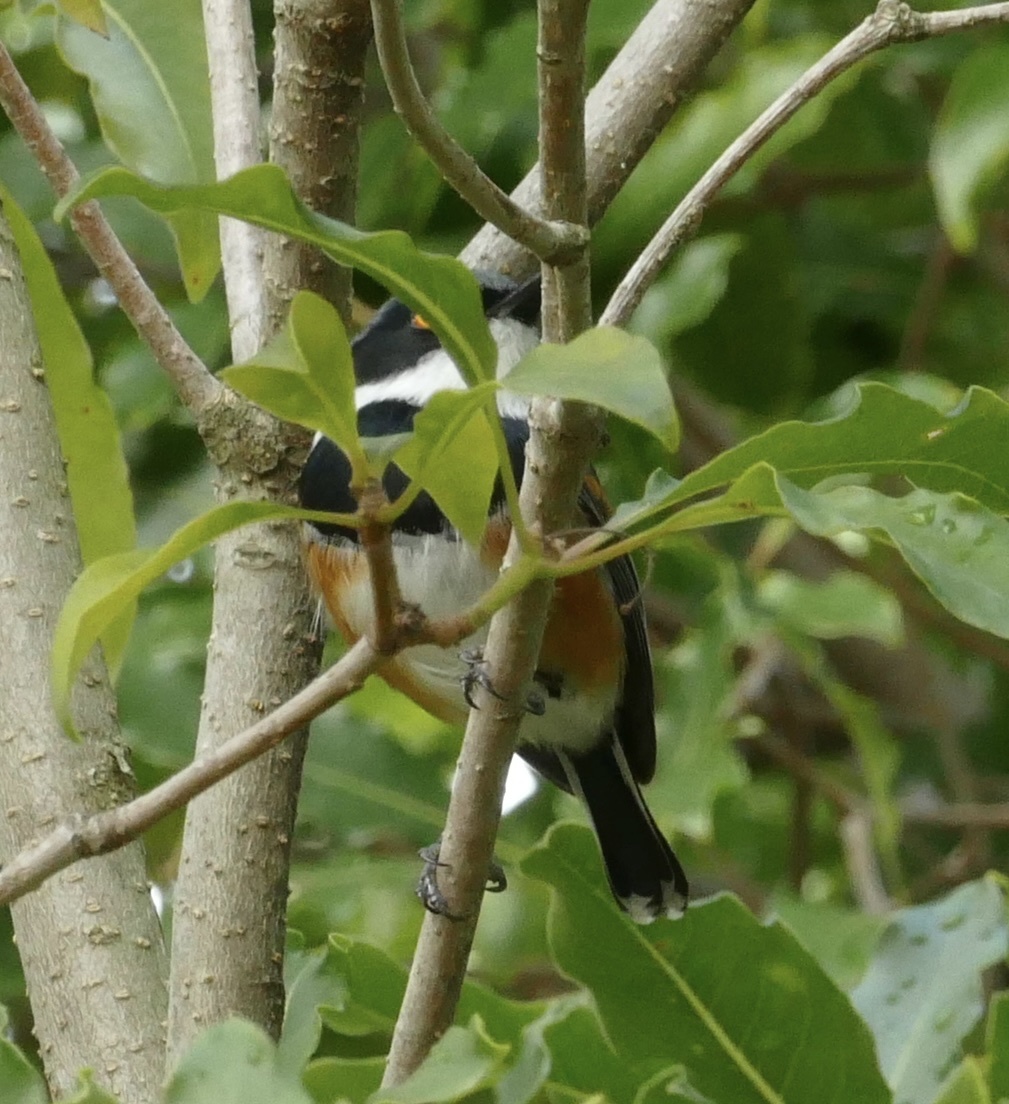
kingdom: Animalia
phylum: Chordata
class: Aves
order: Passeriformes
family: Platysteiridae
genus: Batis
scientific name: Batis capensis
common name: Cape batis
